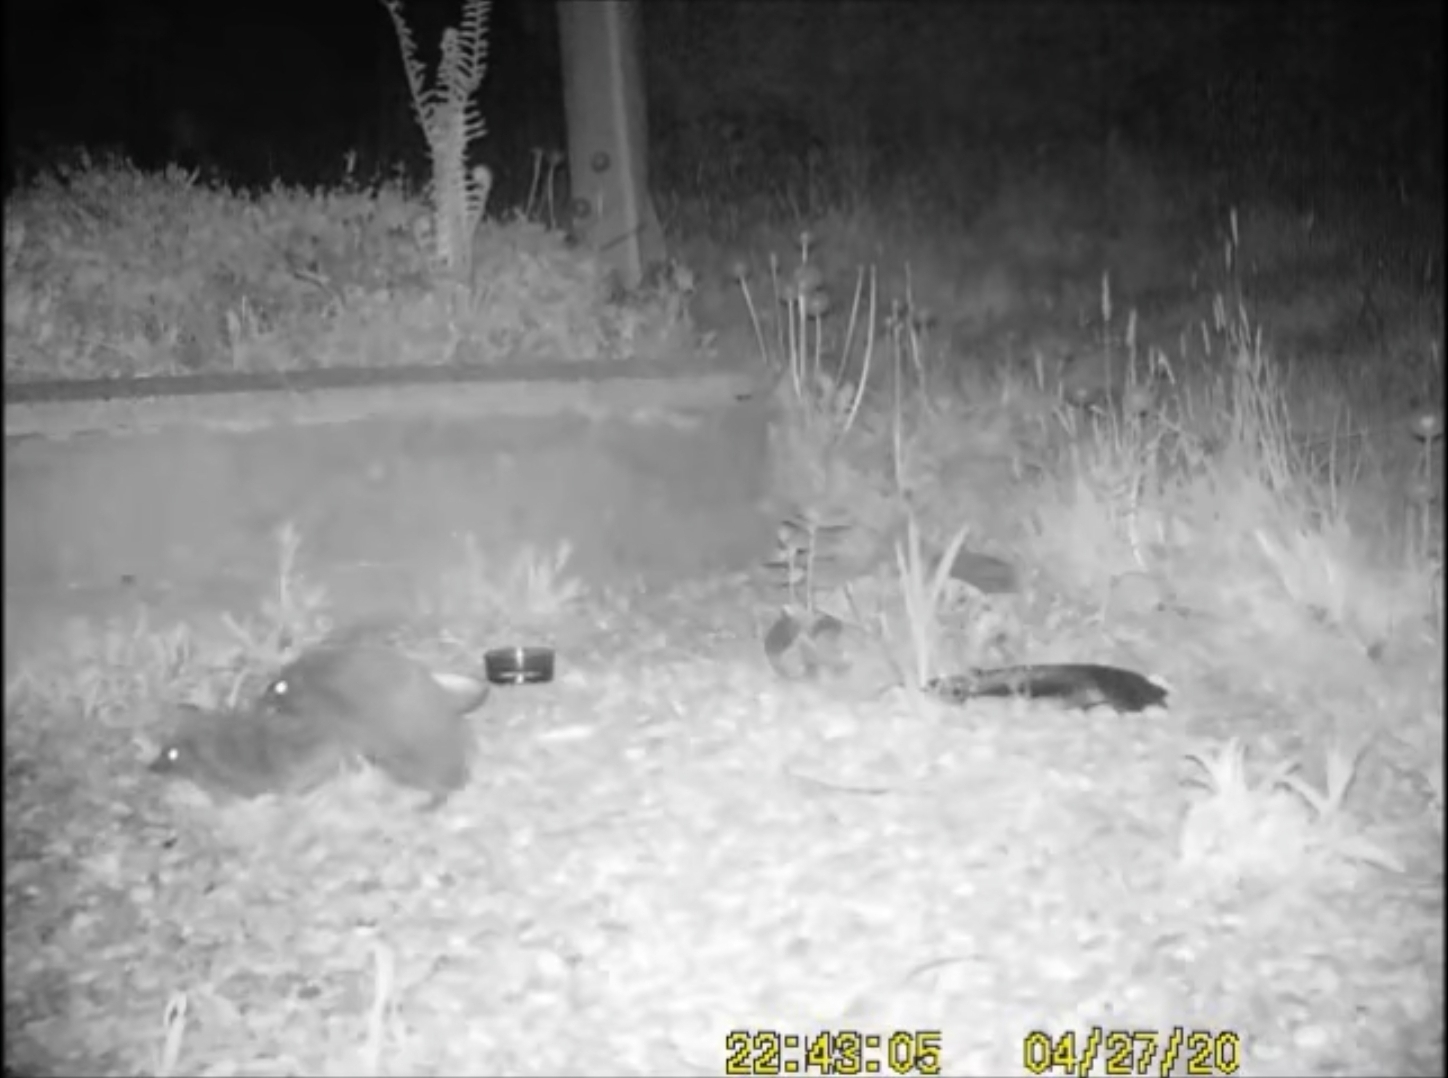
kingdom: Animalia
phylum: Chordata
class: Mammalia
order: Erinaceomorpha
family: Erinaceidae
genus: Erinaceus
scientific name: Erinaceus europaeus
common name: West european hedgehog
